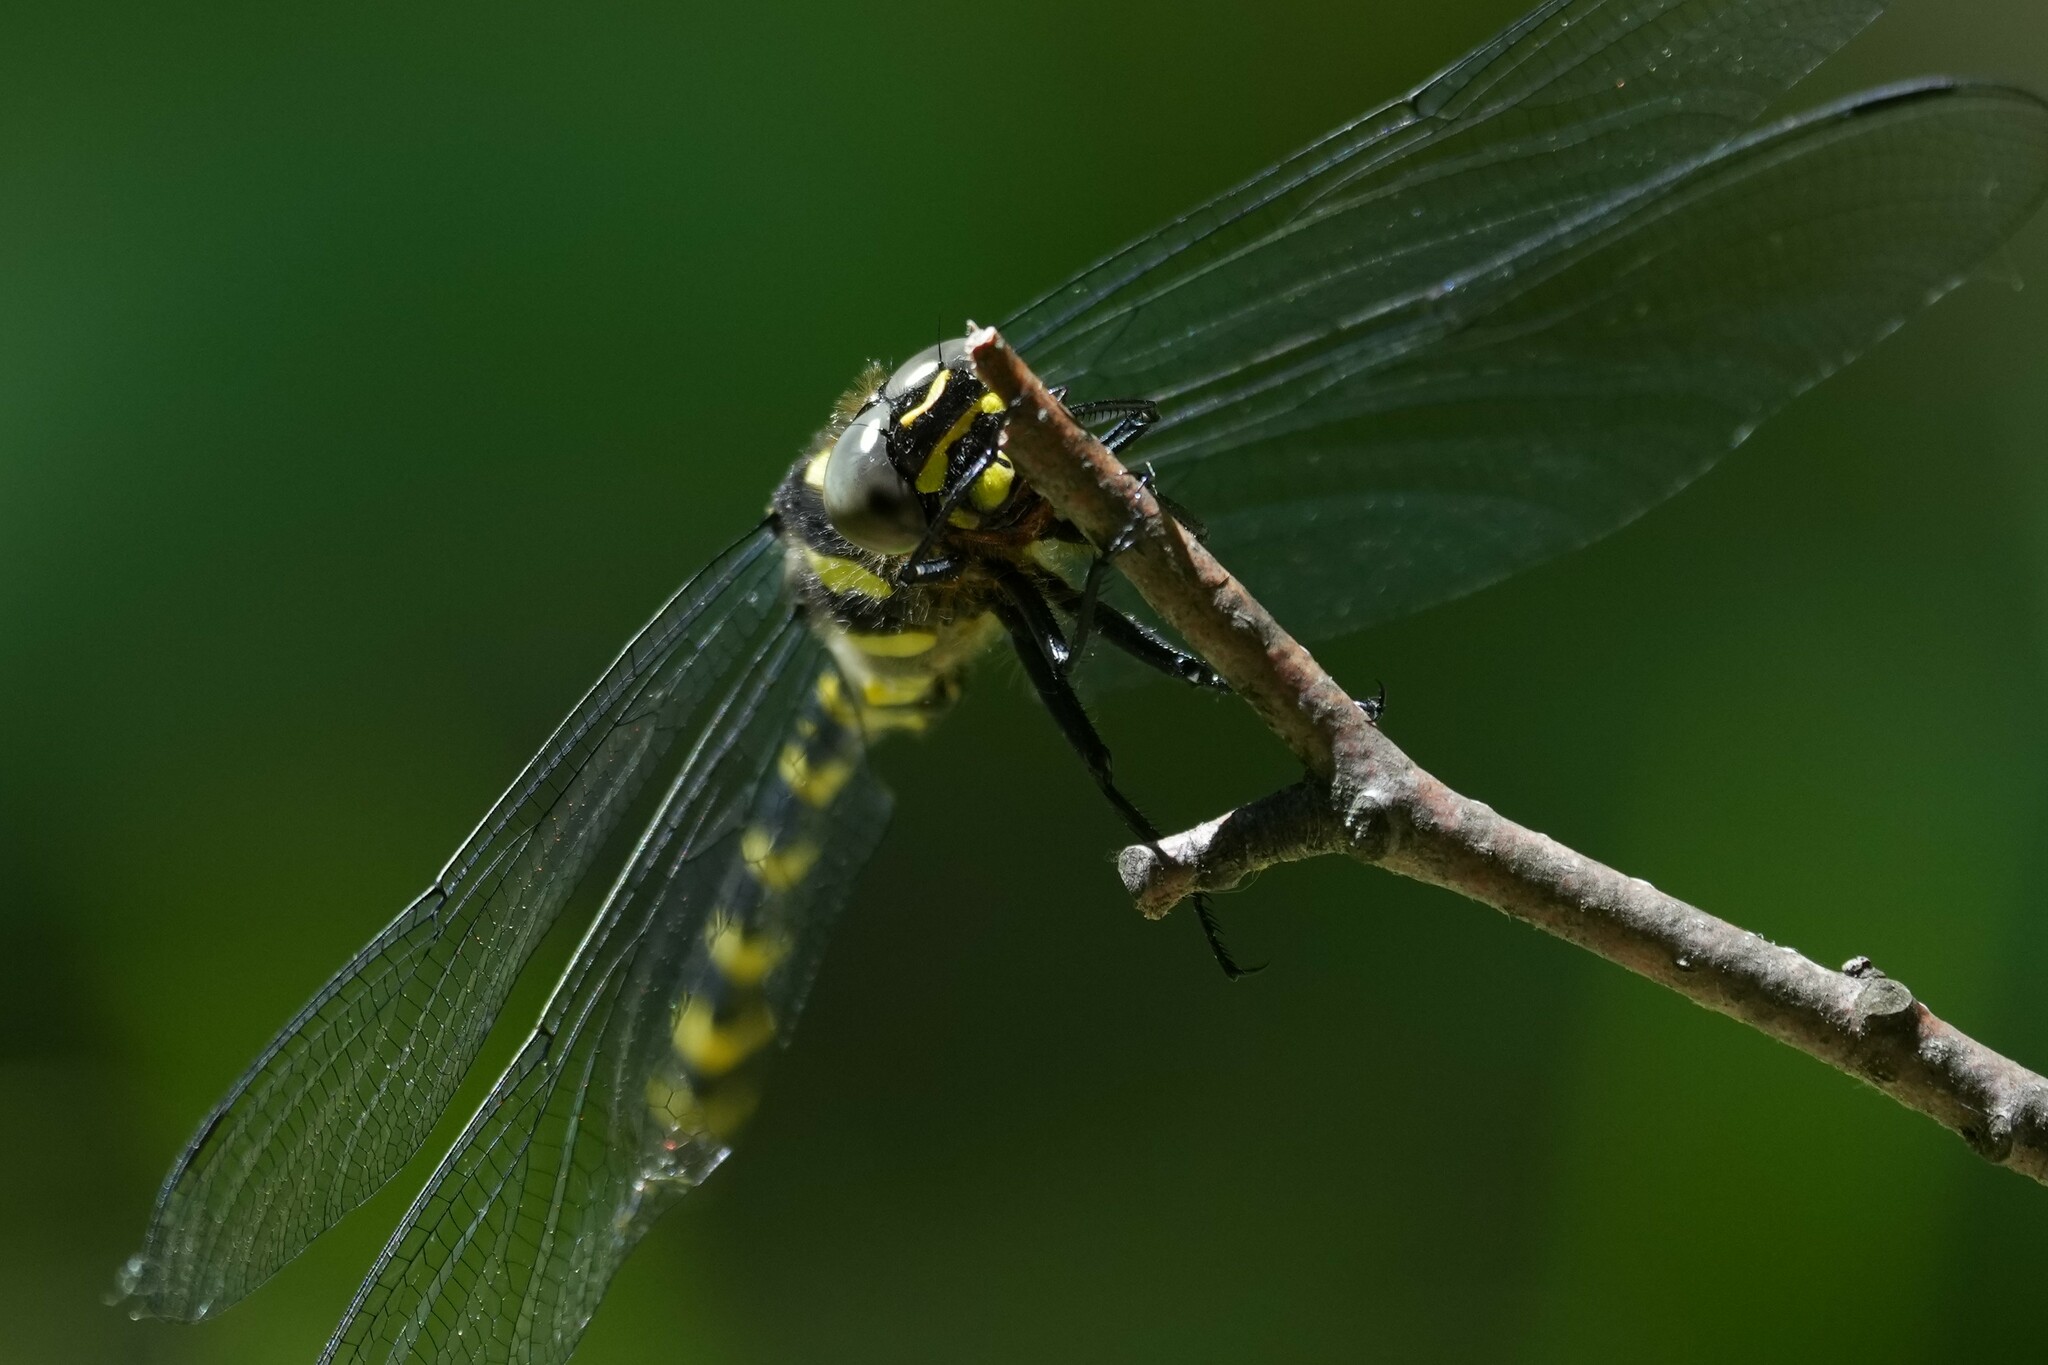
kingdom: Animalia
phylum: Arthropoda
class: Insecta
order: Odonata
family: Cordulegastridae
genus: Cordulegaster
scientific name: Cordulegaster erronea
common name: Tiger spiketail
